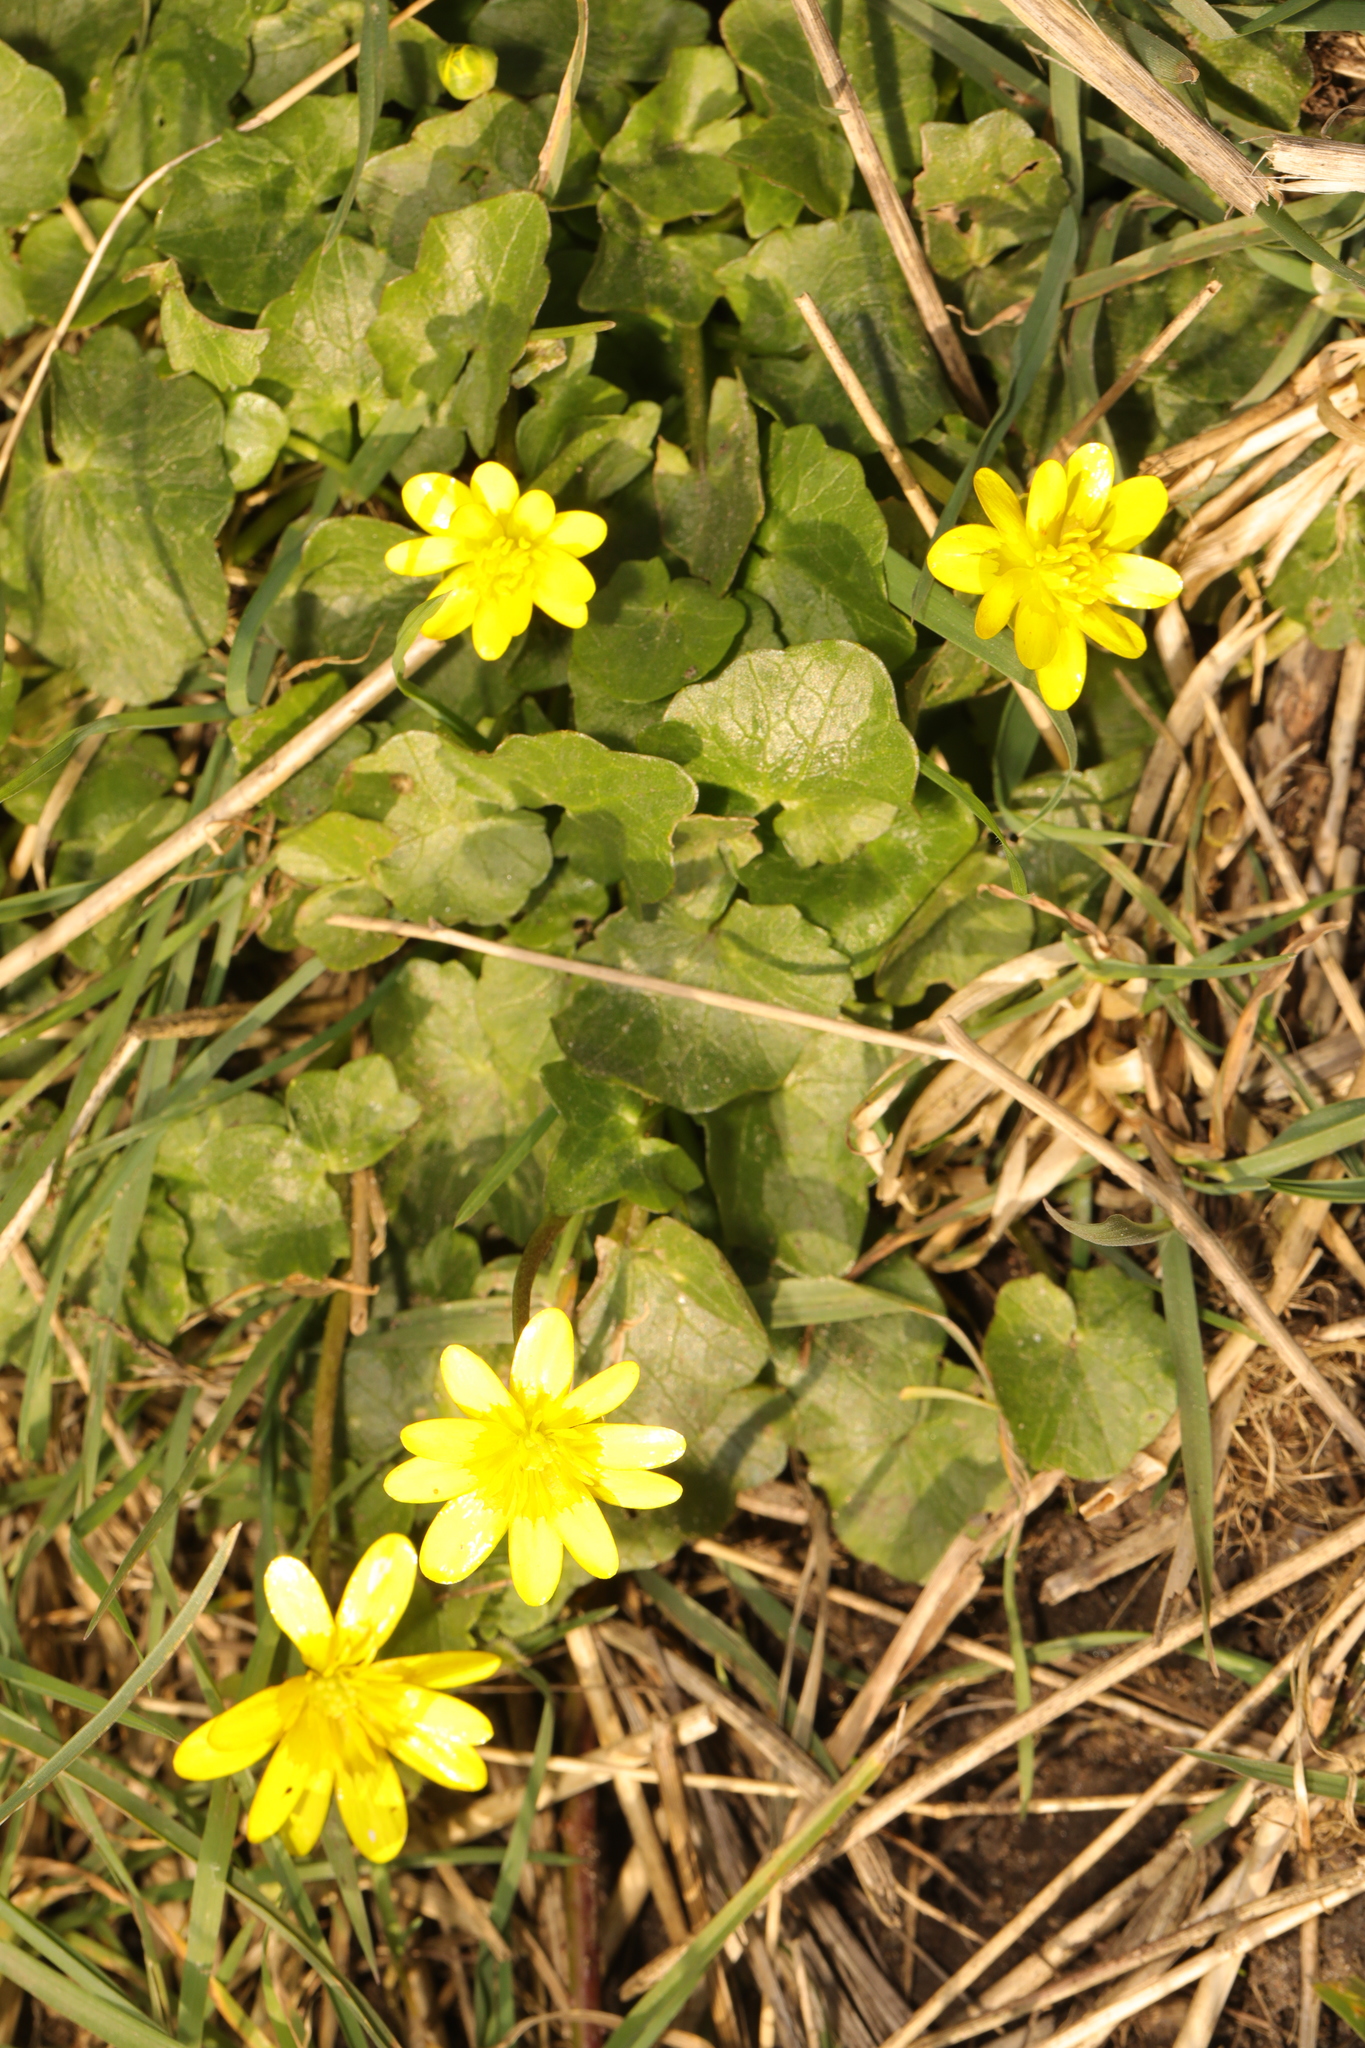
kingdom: Plantae
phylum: Tracheophyta
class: Magnoliopsida
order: Ranunculales
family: Ranunculaceae
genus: Ficaria
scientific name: Ficaria verna
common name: Lesser celandine
